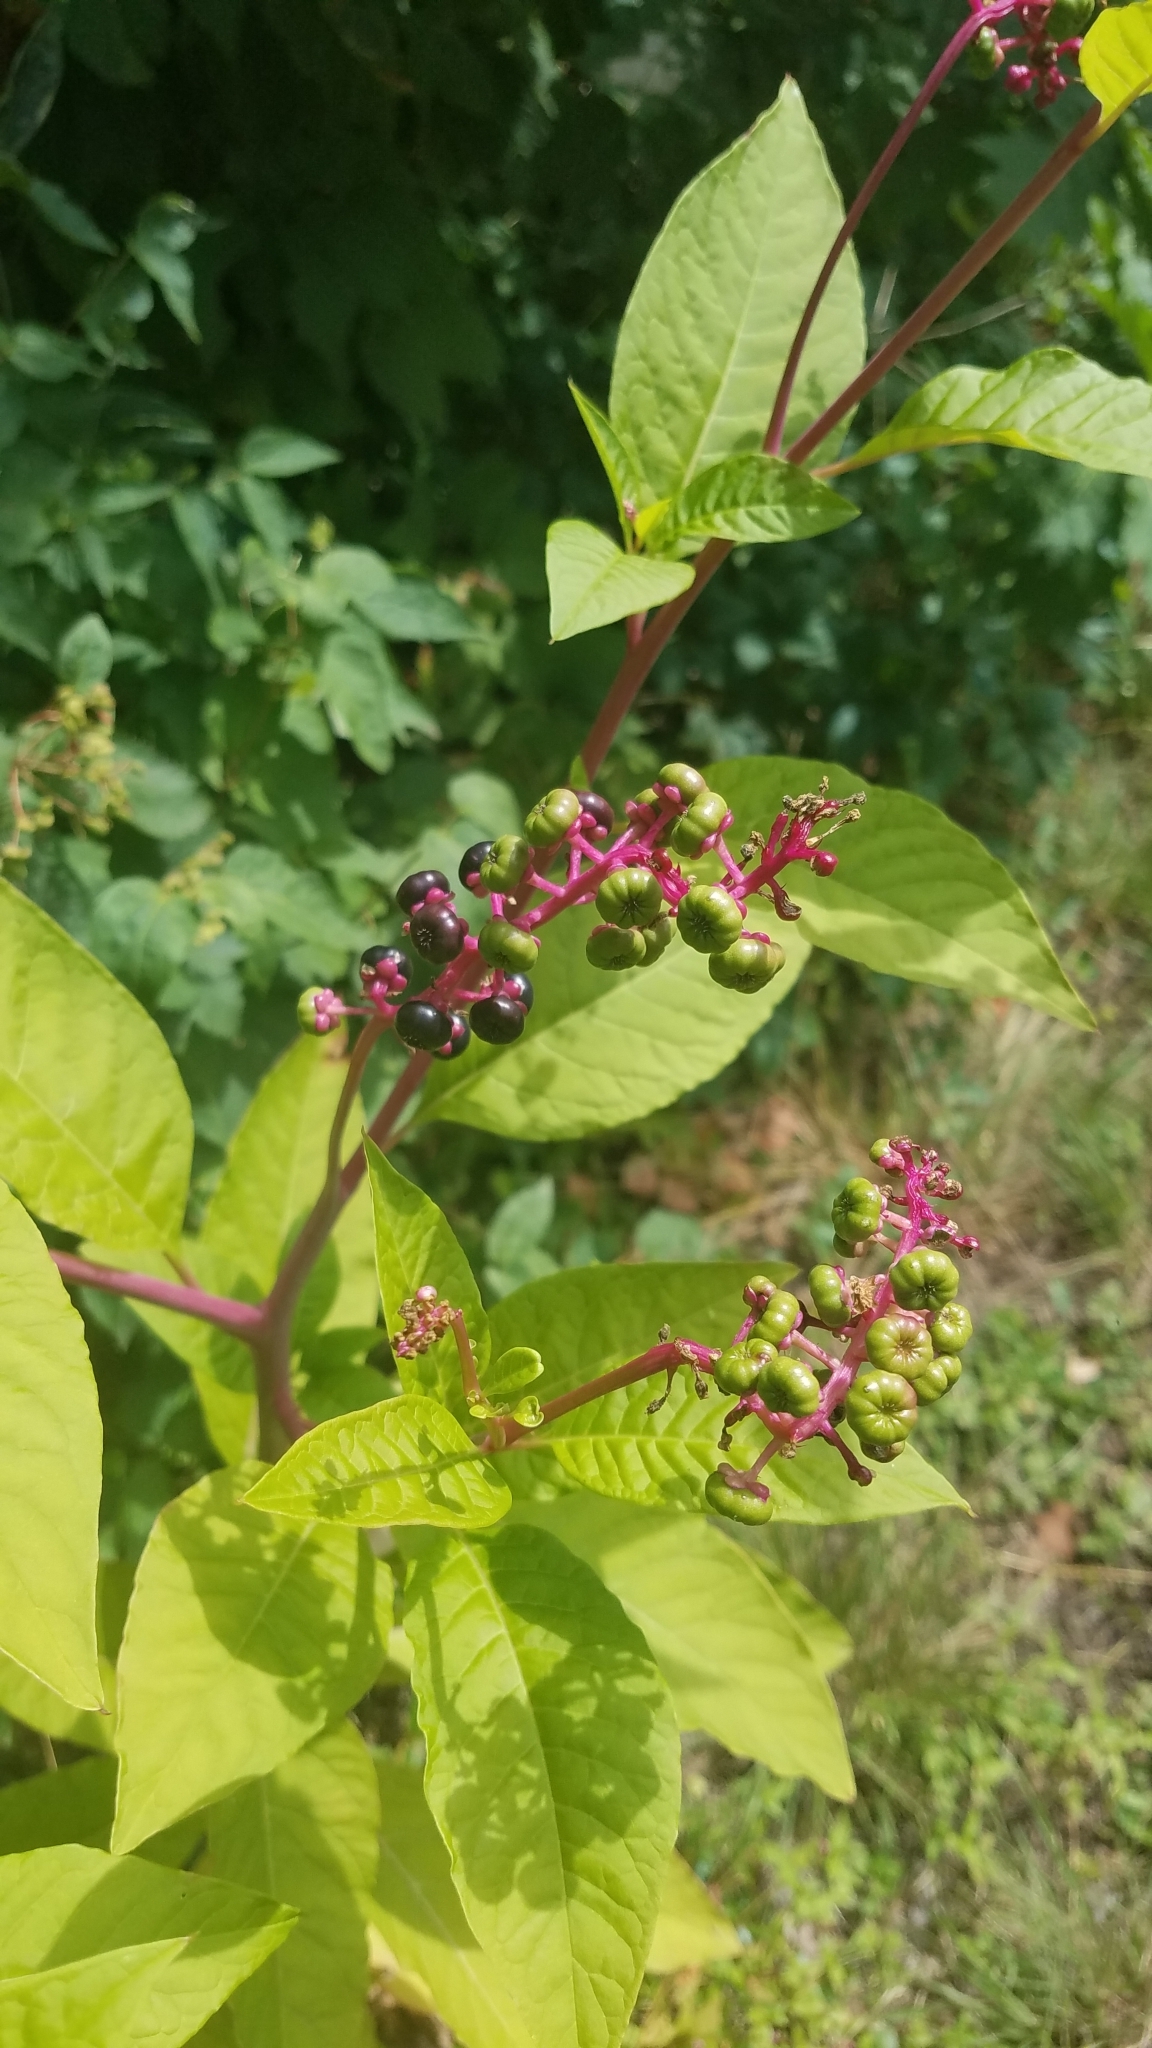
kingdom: Plantae
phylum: Tracheophyta
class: Magnoliopsida
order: Caryophyllales
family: Phytolaccaceae
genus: Phytolacca
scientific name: Phytolacca americana
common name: American pokeweed
